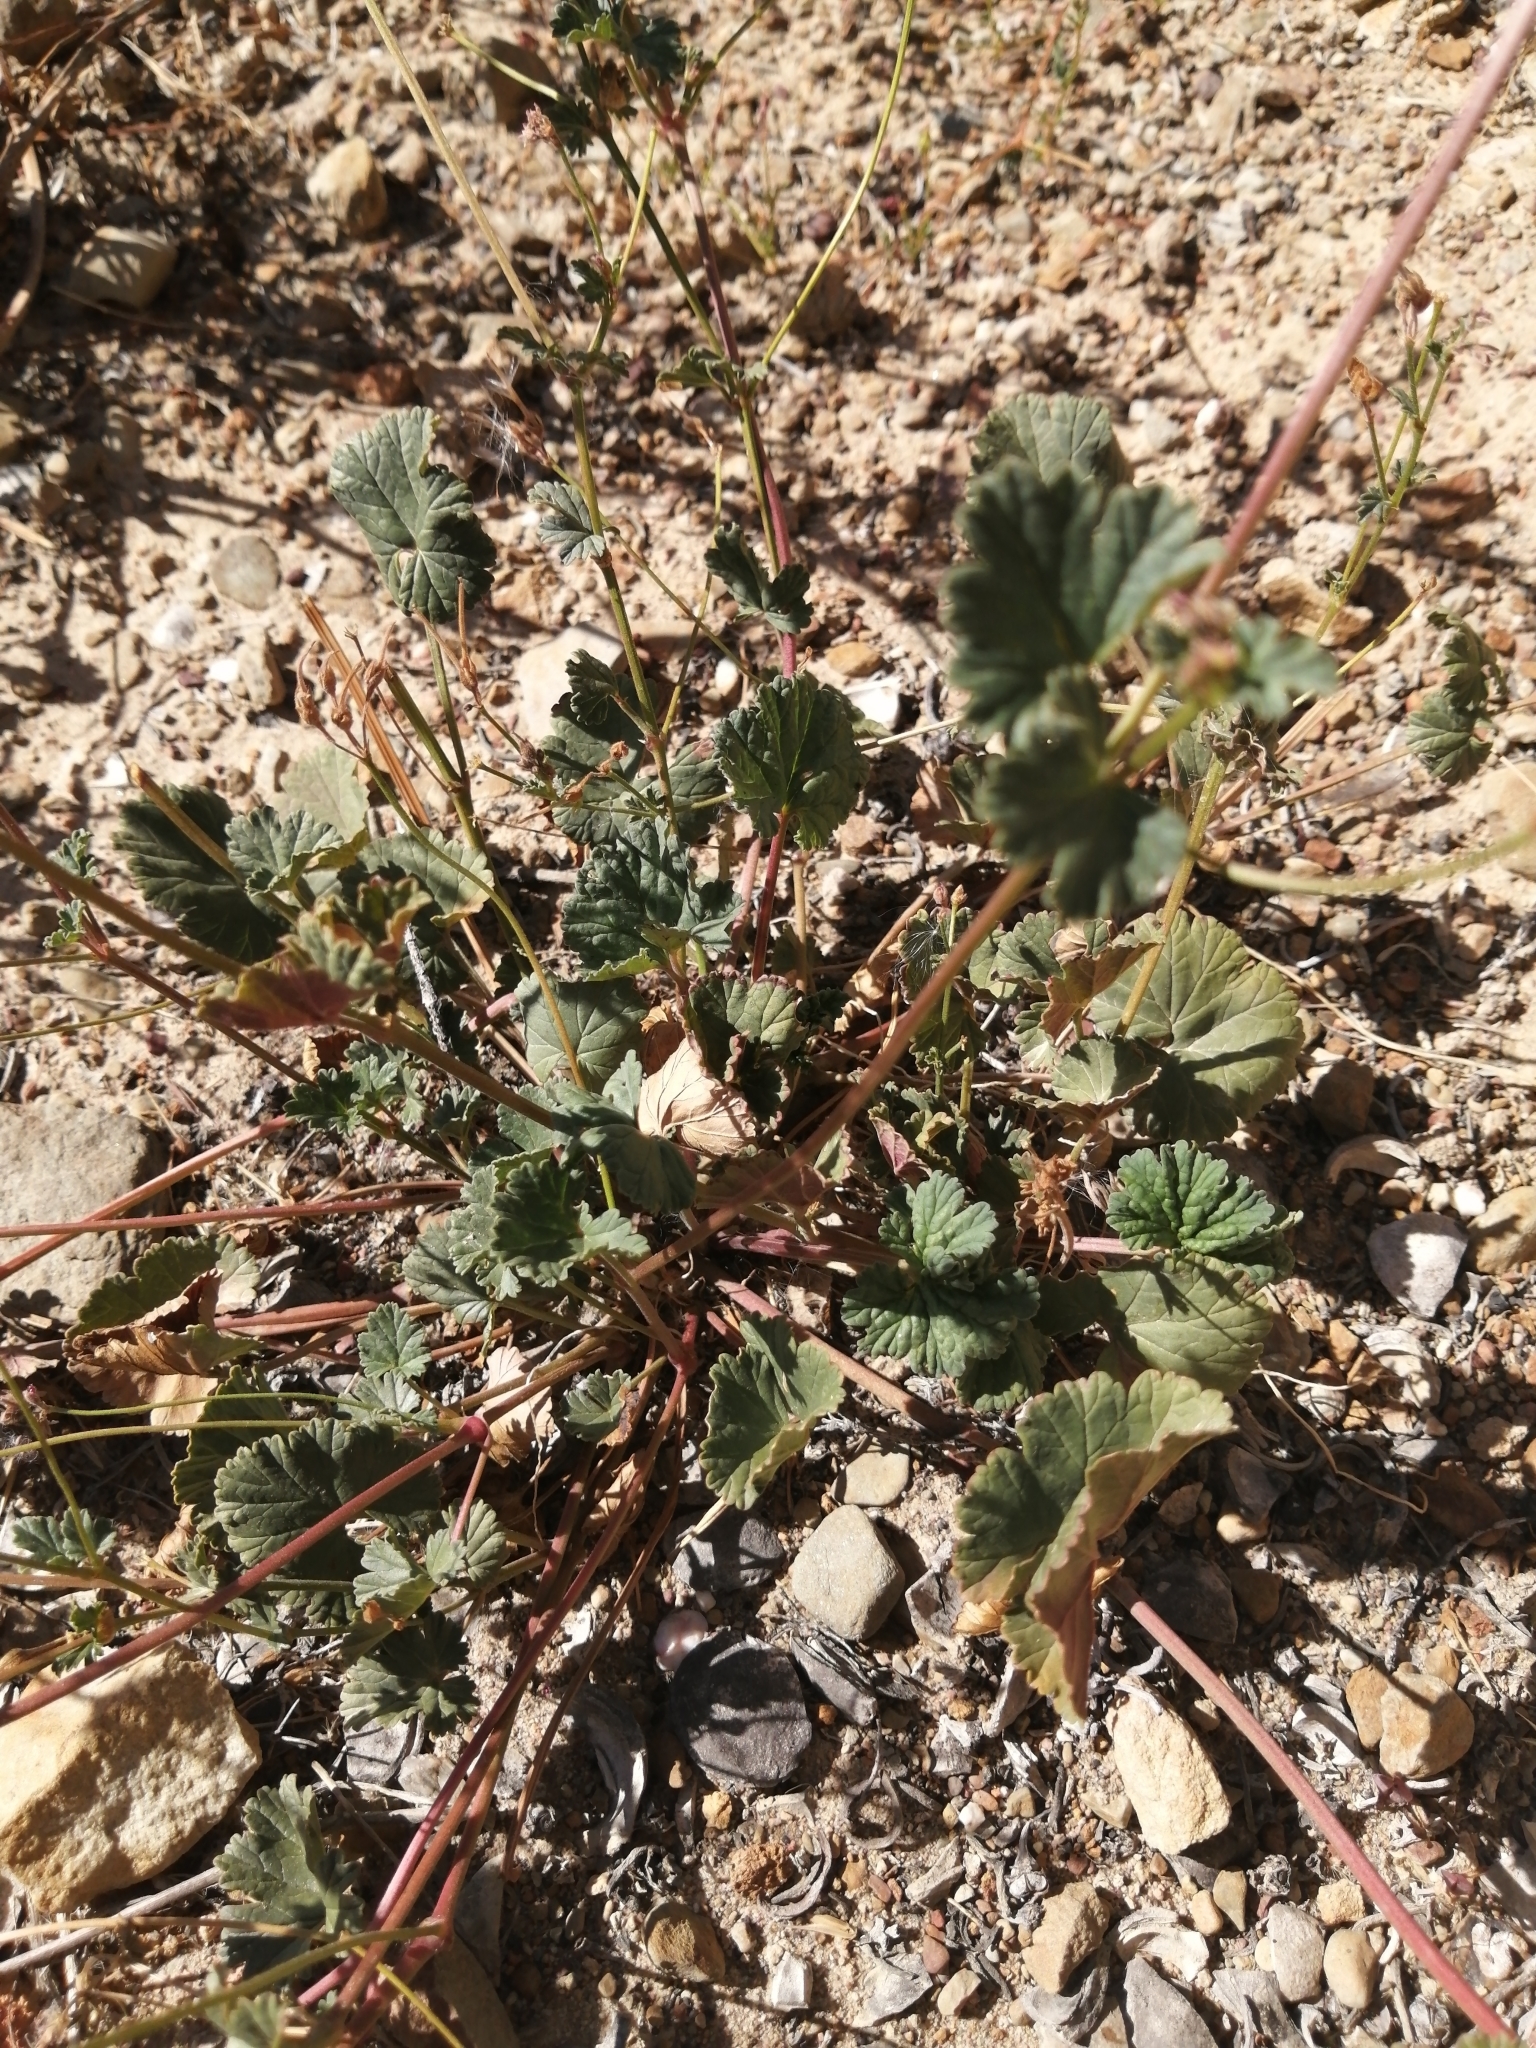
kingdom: Plantae
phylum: Tracheophyta
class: Magnoliopsida
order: Geraniales
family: Geraniaceae
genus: Pelargonium
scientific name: Pelargonium grossularioides
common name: Gooseberry geranium
